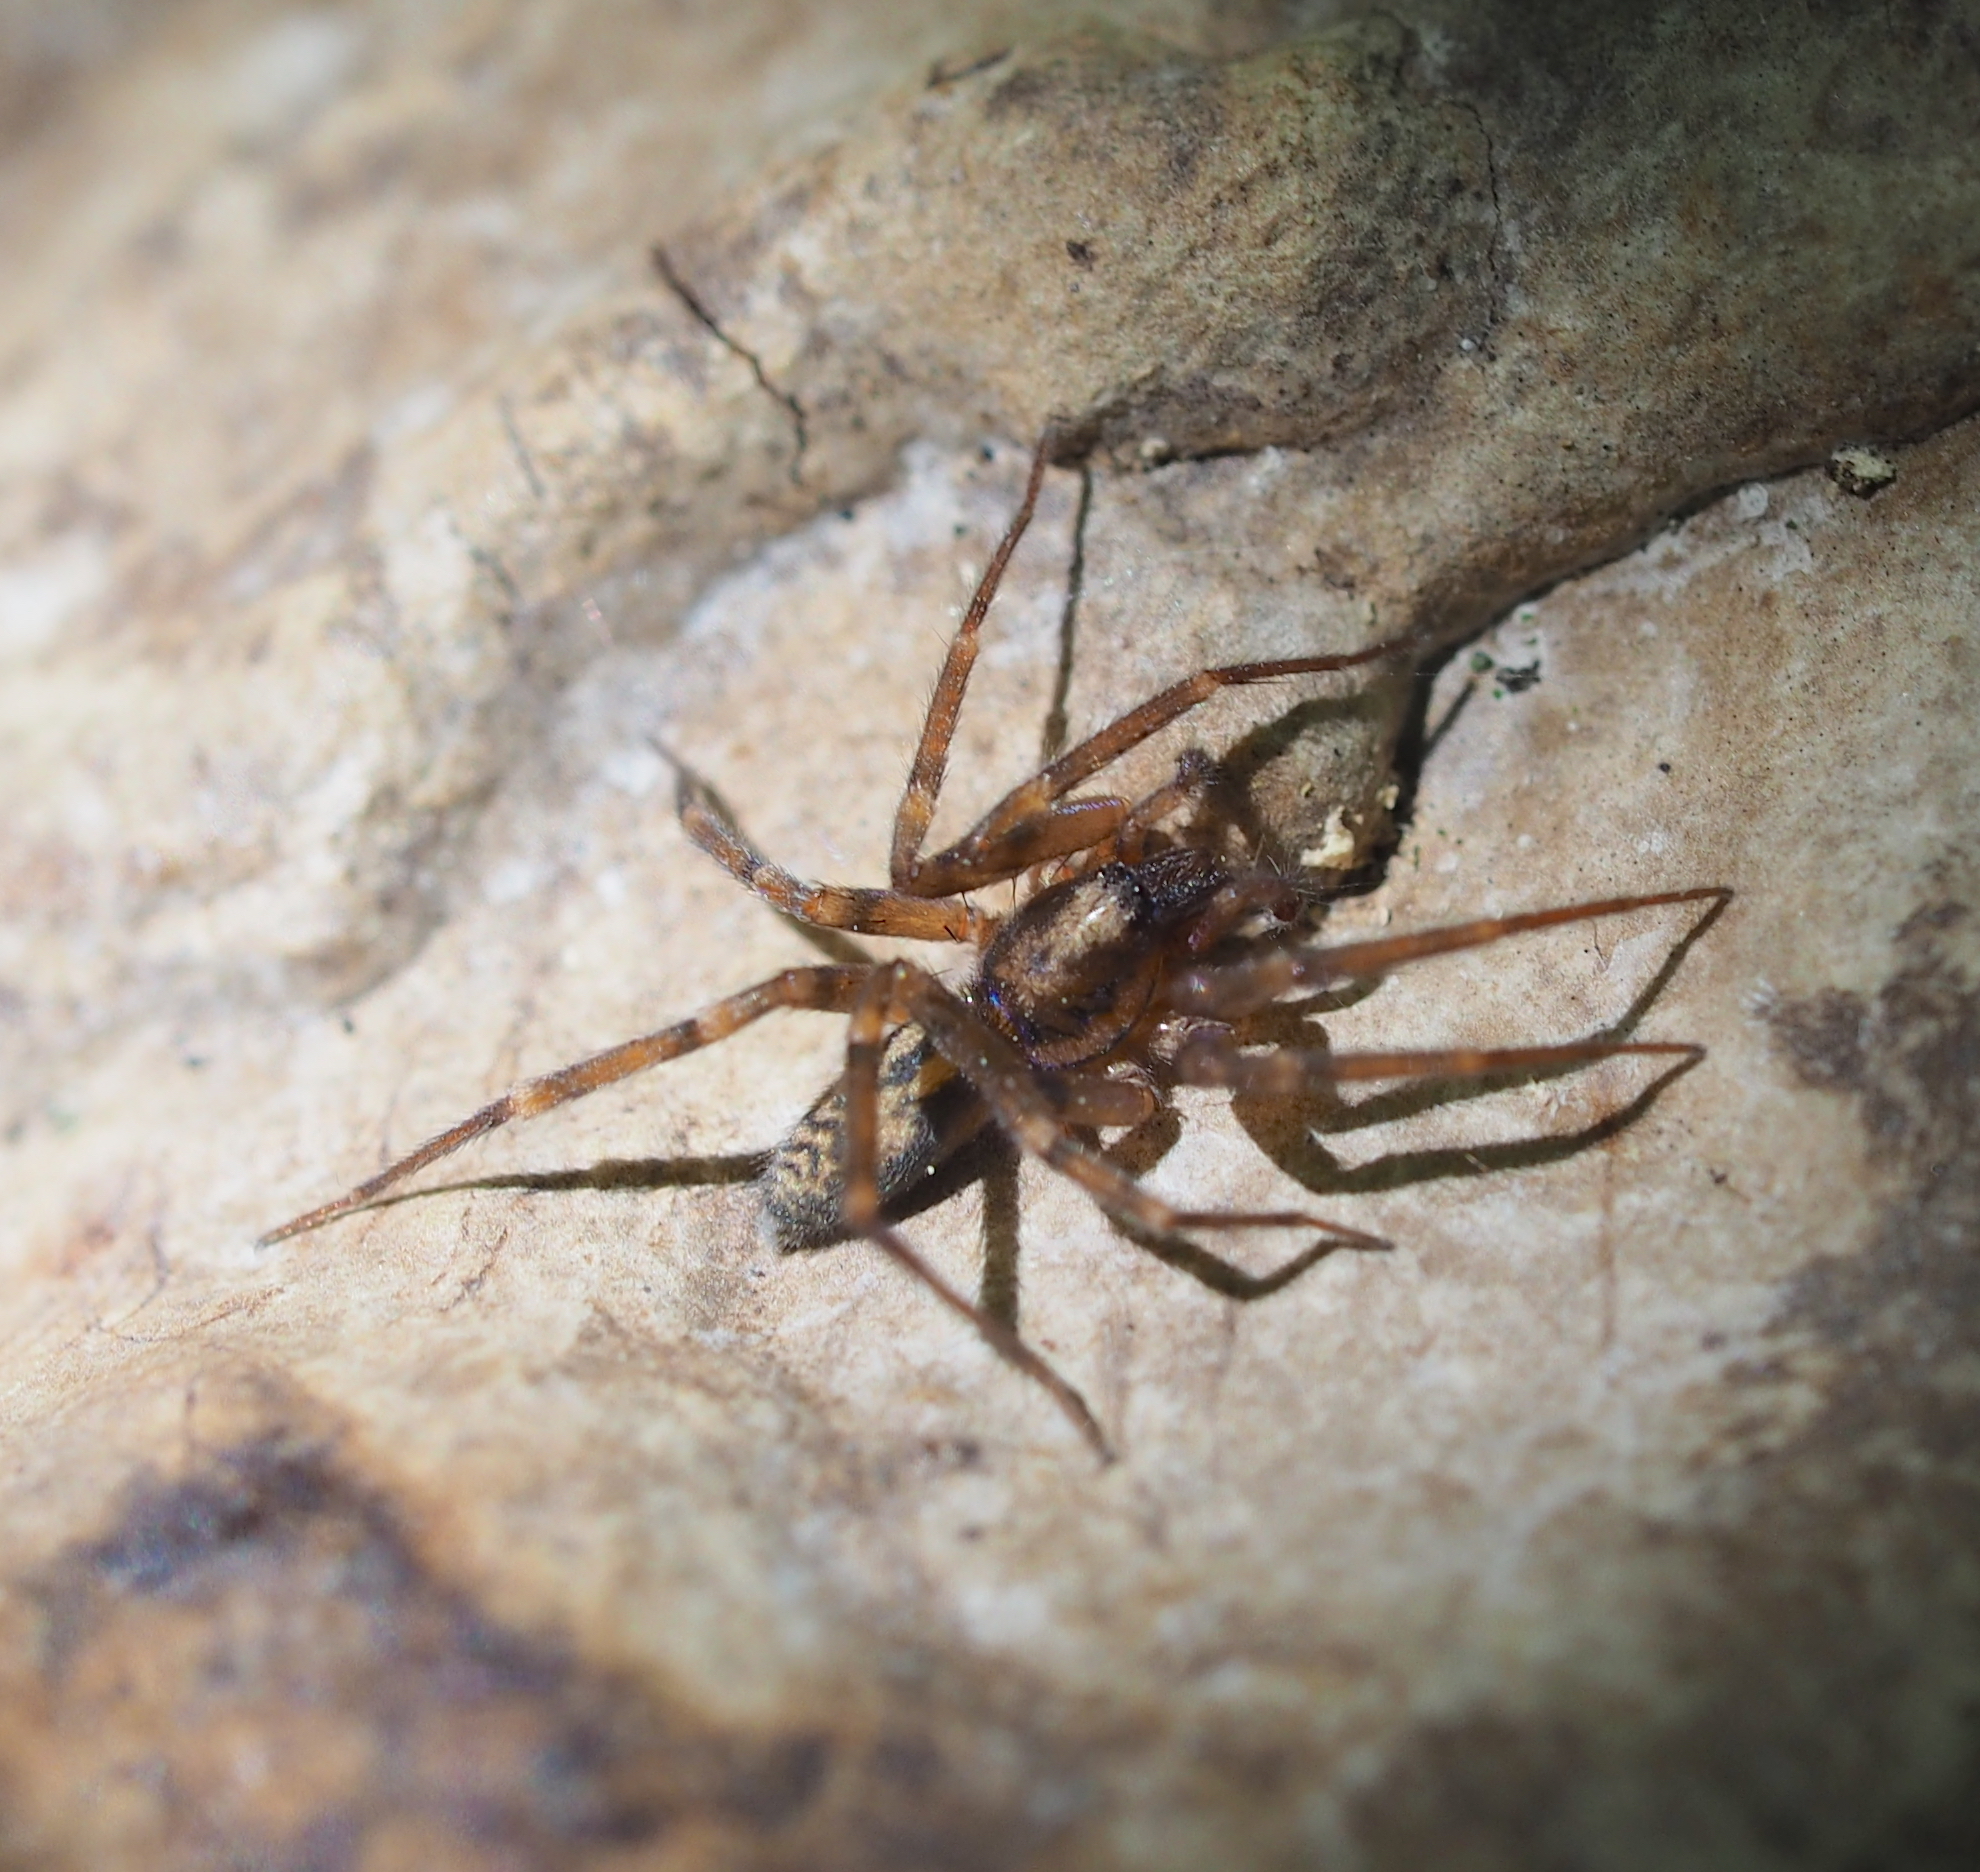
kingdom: Animalia
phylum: Arthropoda
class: Arachnida
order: Araneae
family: Liocranidae
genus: Liocranum
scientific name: Liocranum rupicola
